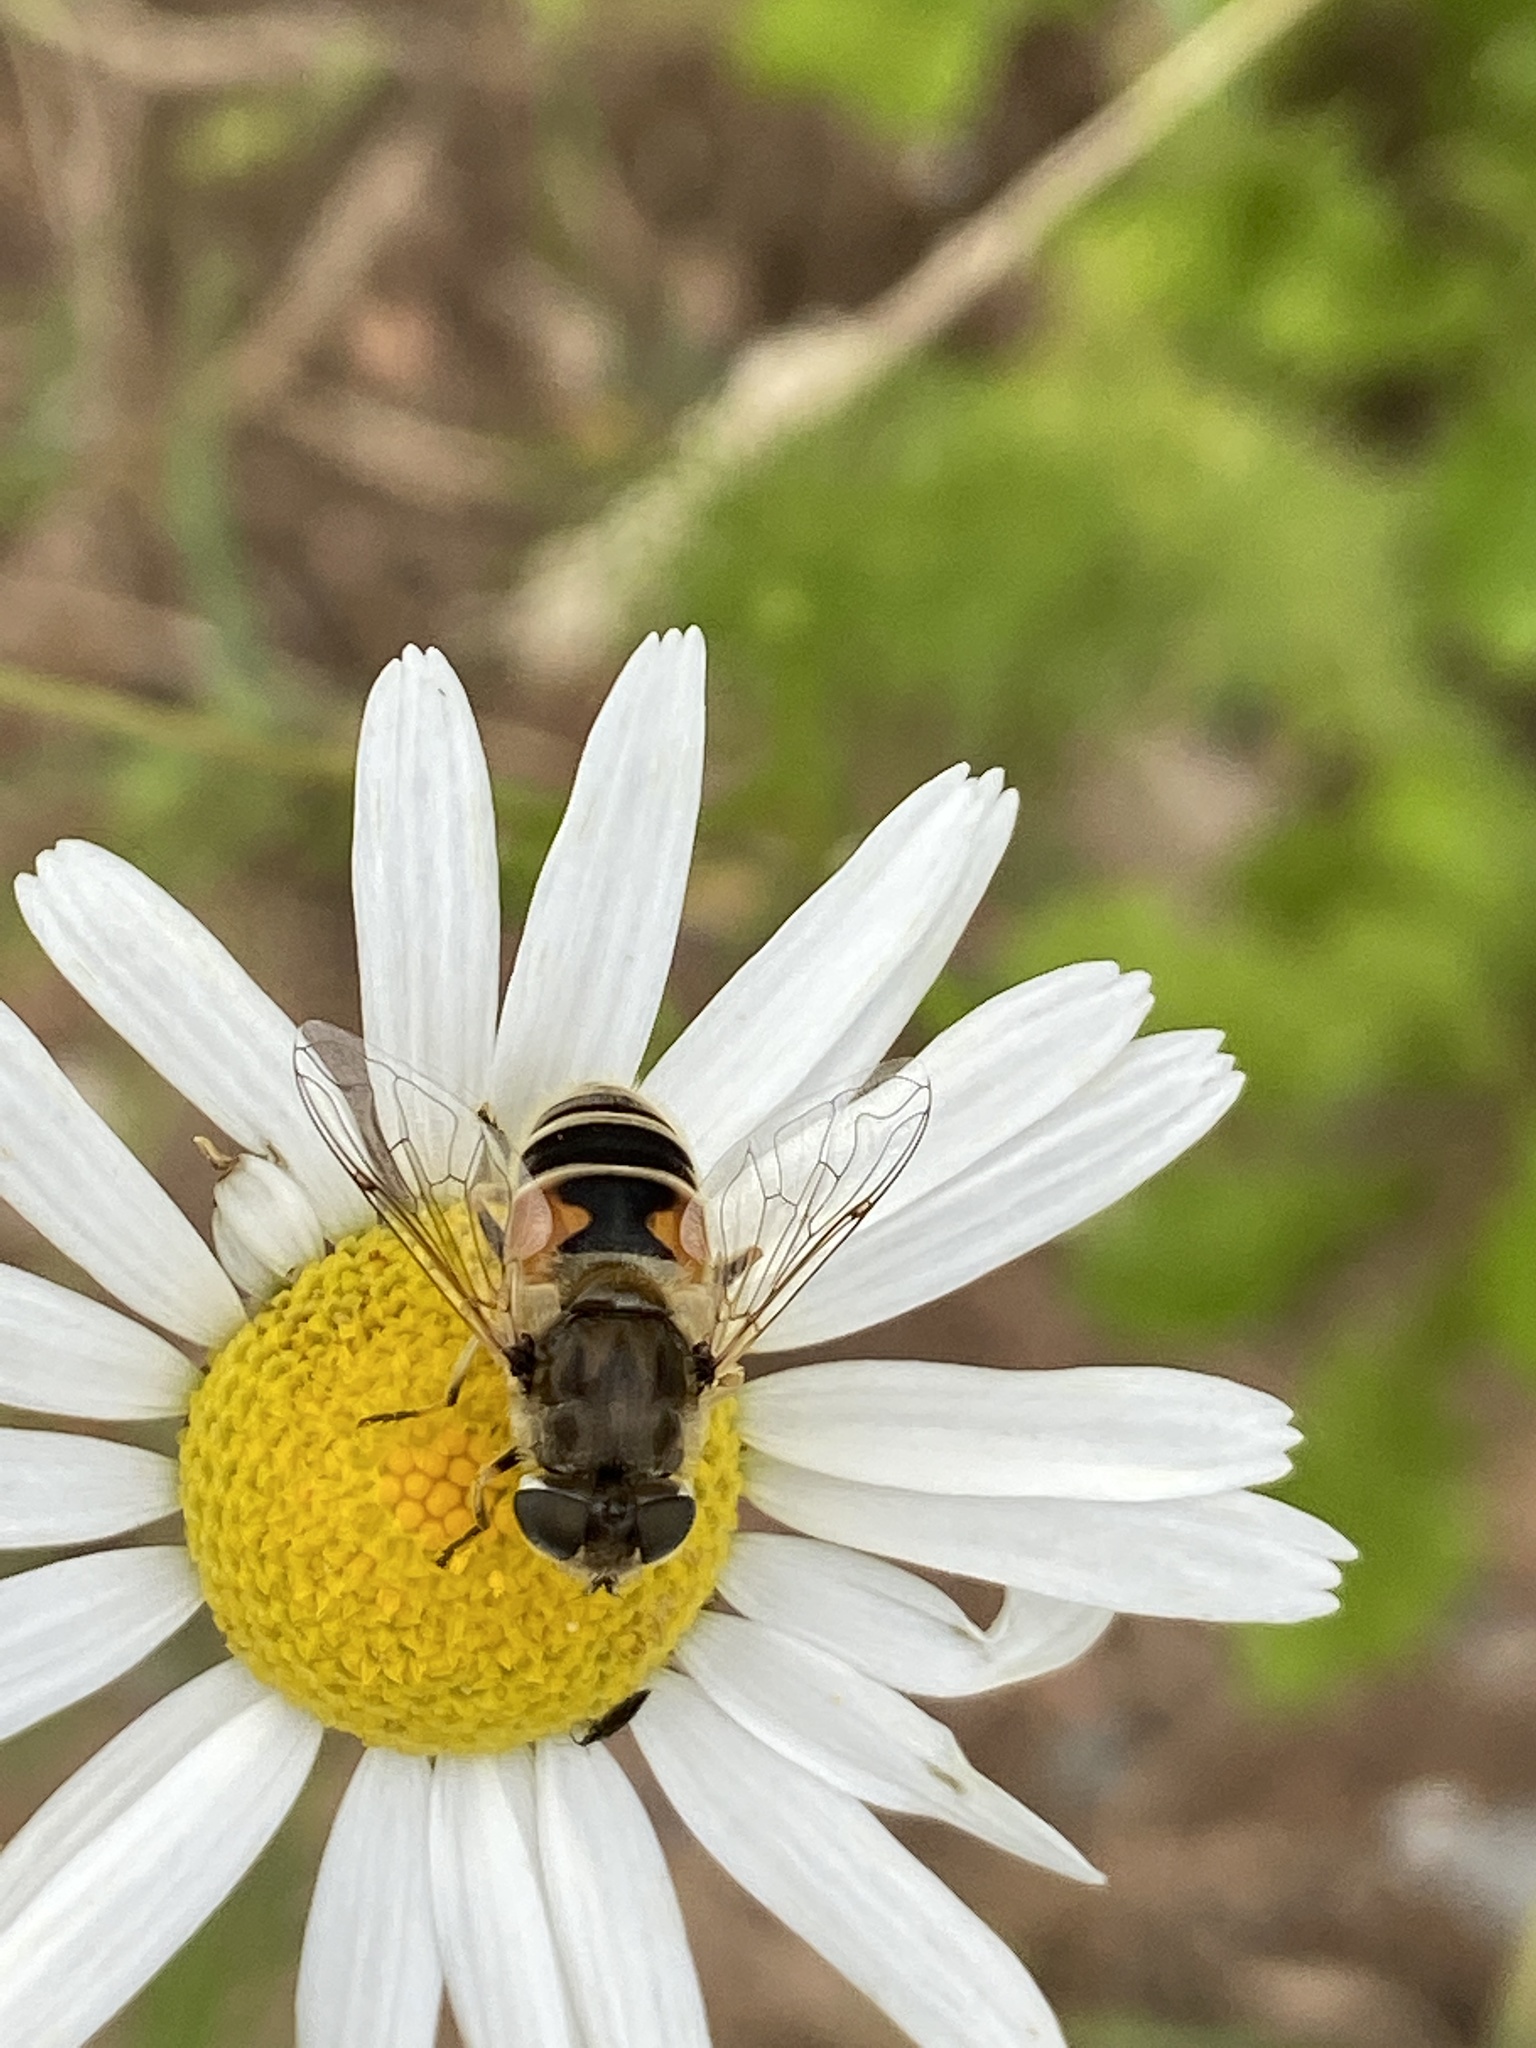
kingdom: Animalia
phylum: Arthropoda
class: Insecta
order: Diptera
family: Syrphidae
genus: Eristalis
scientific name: Eristalis arbustorum
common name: Hover fly
